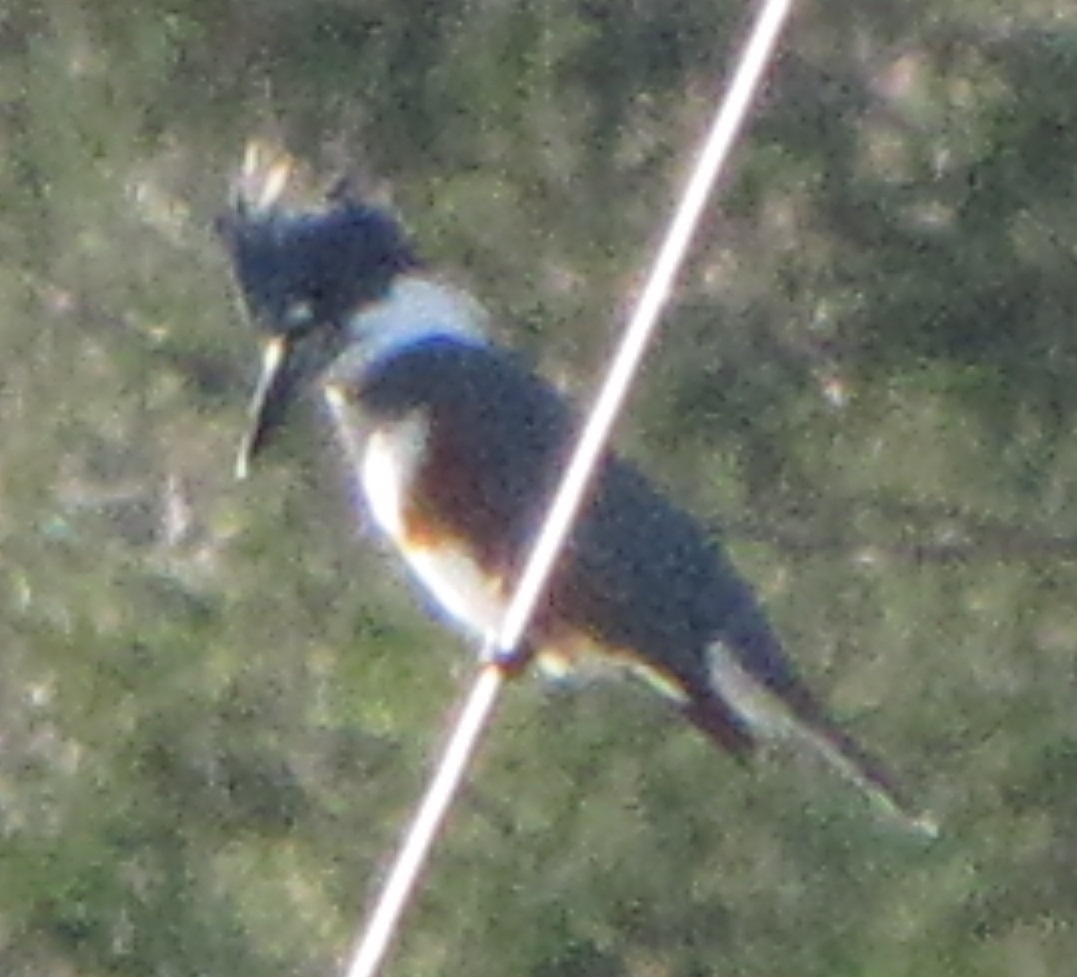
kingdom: Animalia
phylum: Chordata
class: Aves
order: Coraciiformes
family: Alcedinidae
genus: Megaceryle
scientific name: Megaceryle alcyon
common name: Belted kingfisher
